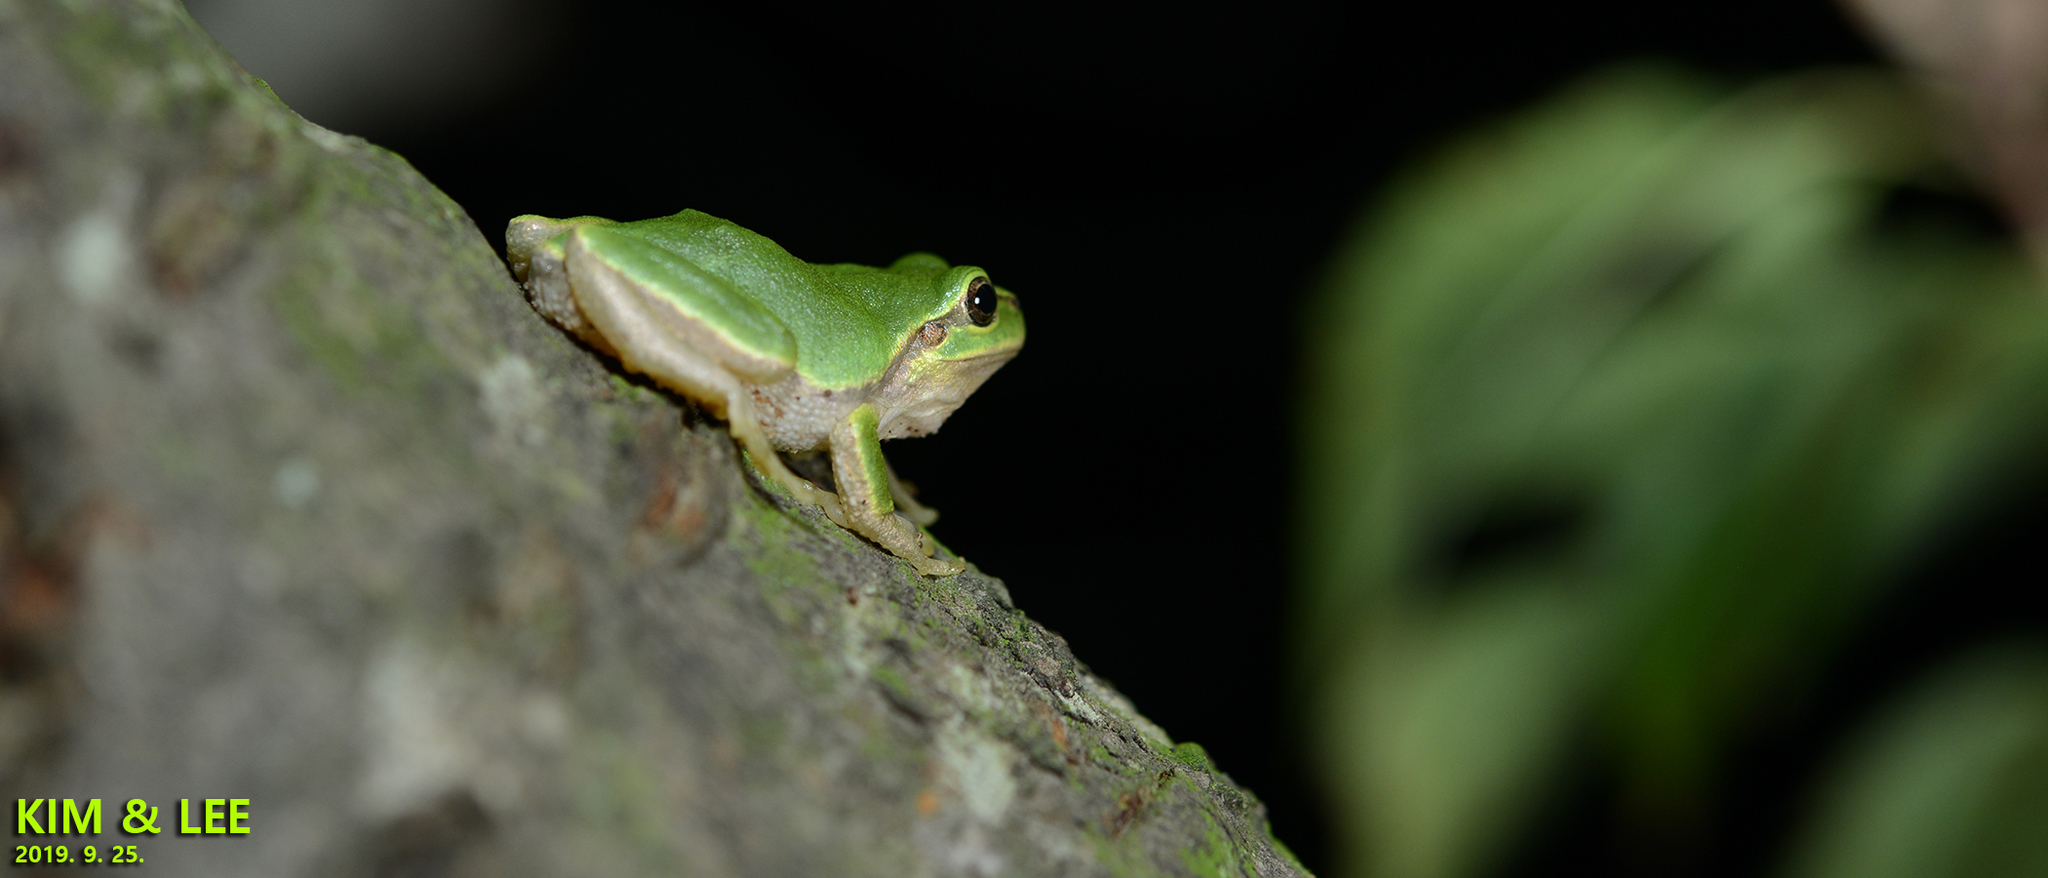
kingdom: Animalia
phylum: Chordata
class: Amphibia
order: Anura
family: Hylidae
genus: Dryophytes
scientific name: Dryophytes japonicus
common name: Japanese treefrog
